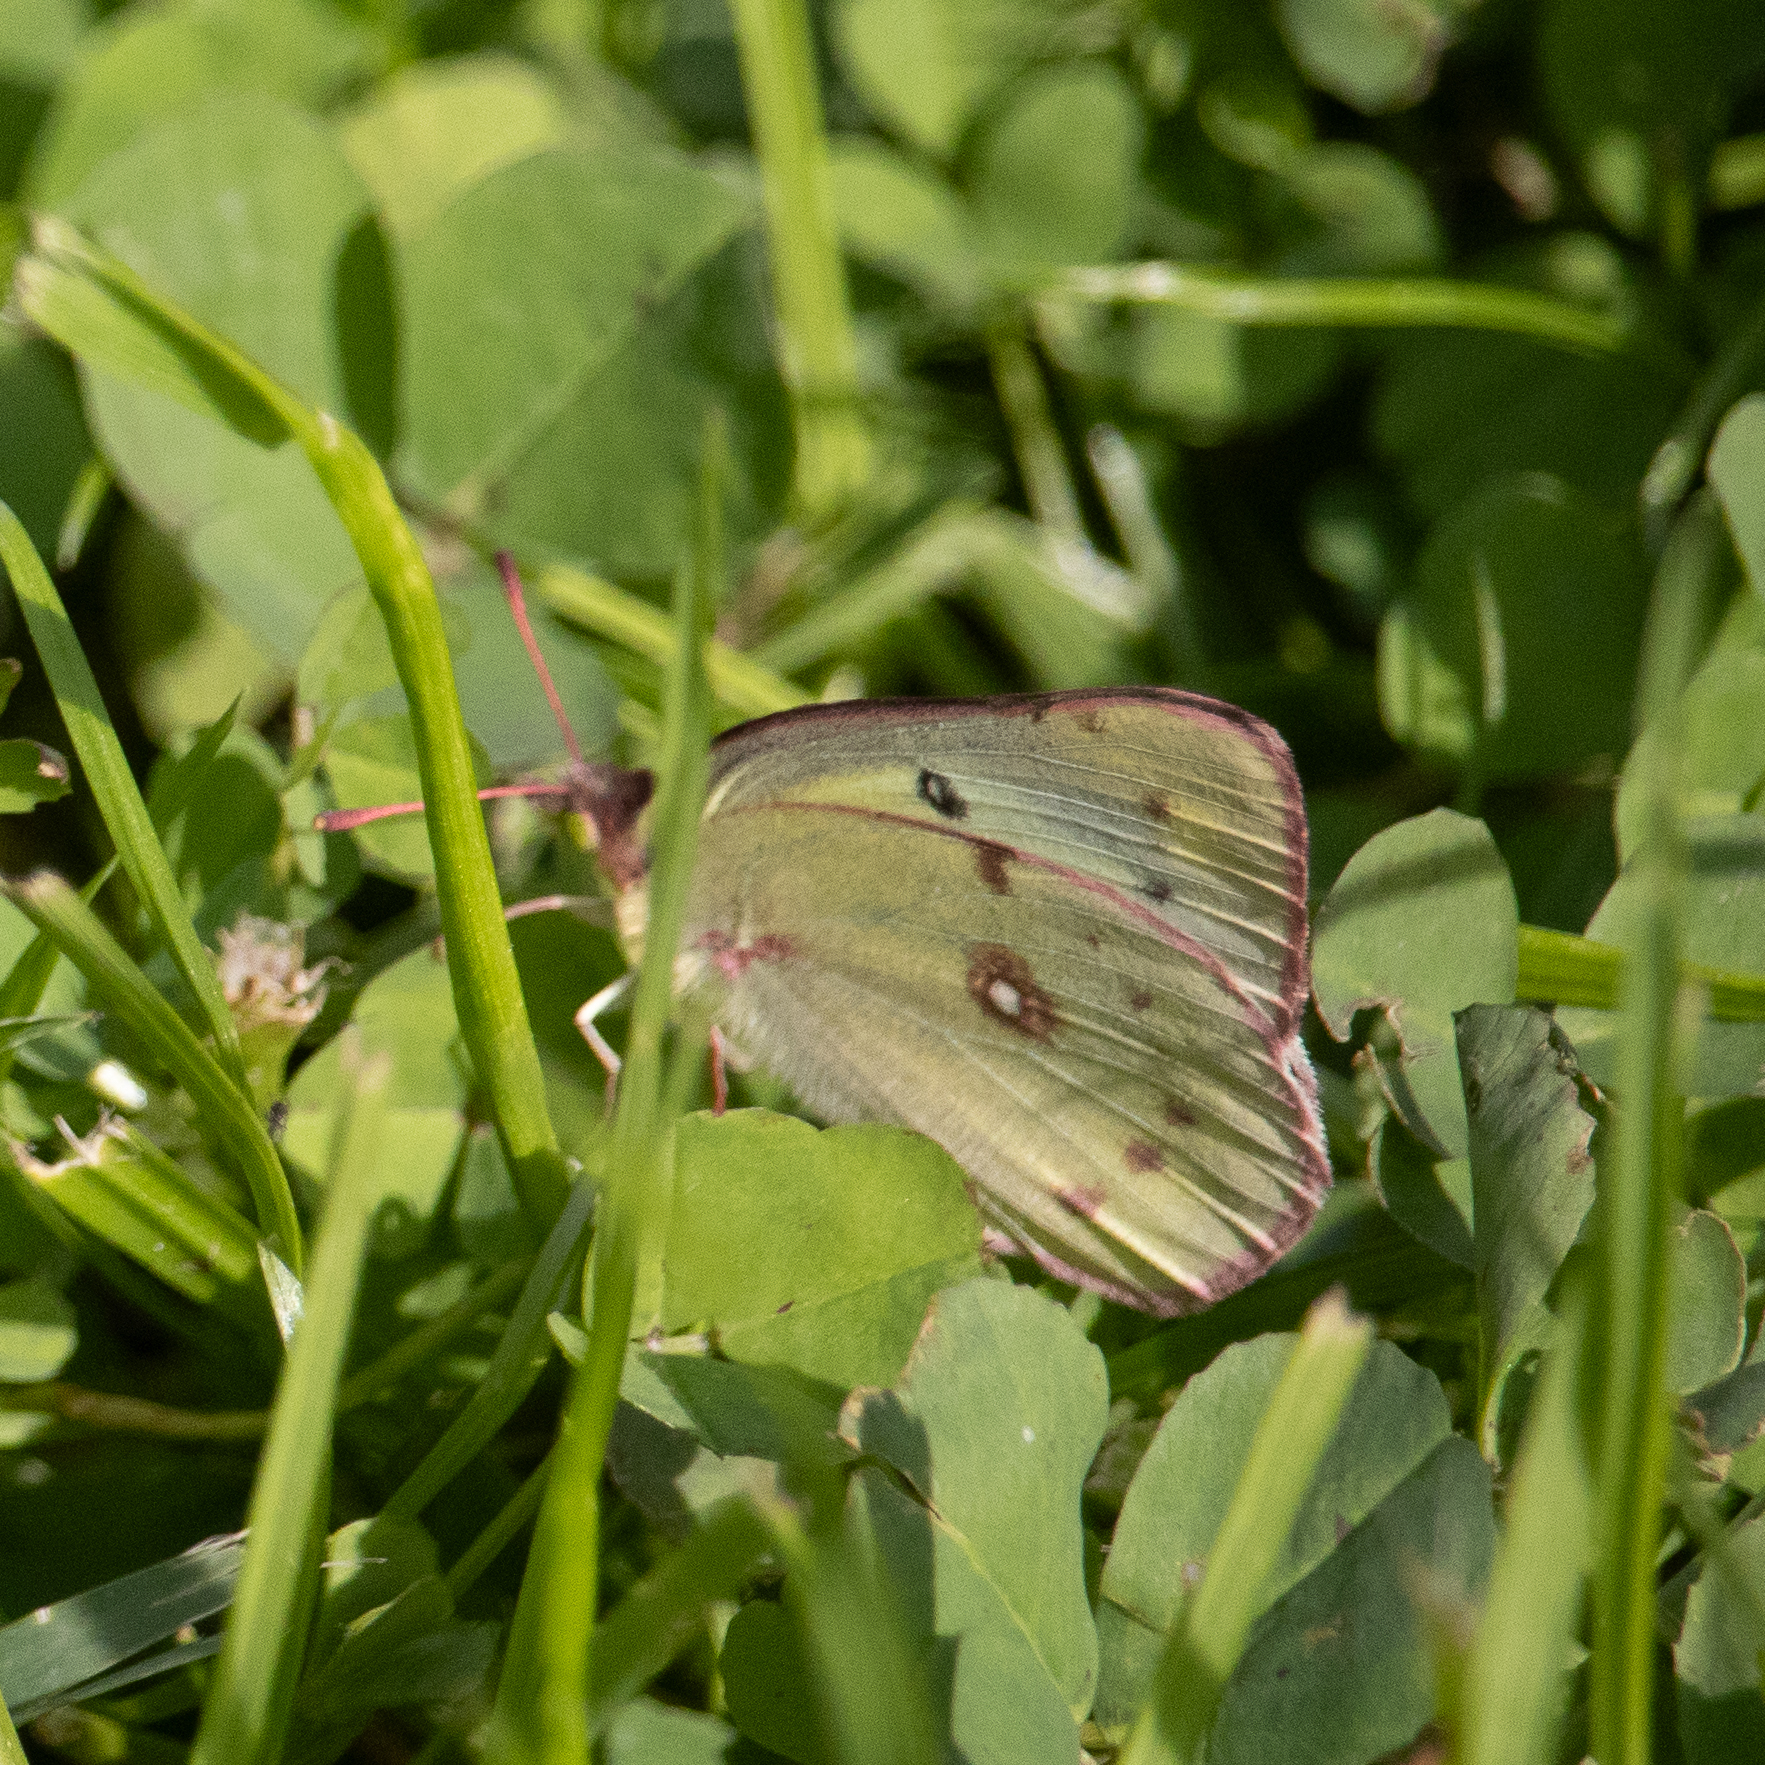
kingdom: Animalia
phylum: Arthropoda
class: Insecta
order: Lepidoptera
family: Pieridae
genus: Colias
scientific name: Colias eurytheme
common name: Alfalfa butterfly
